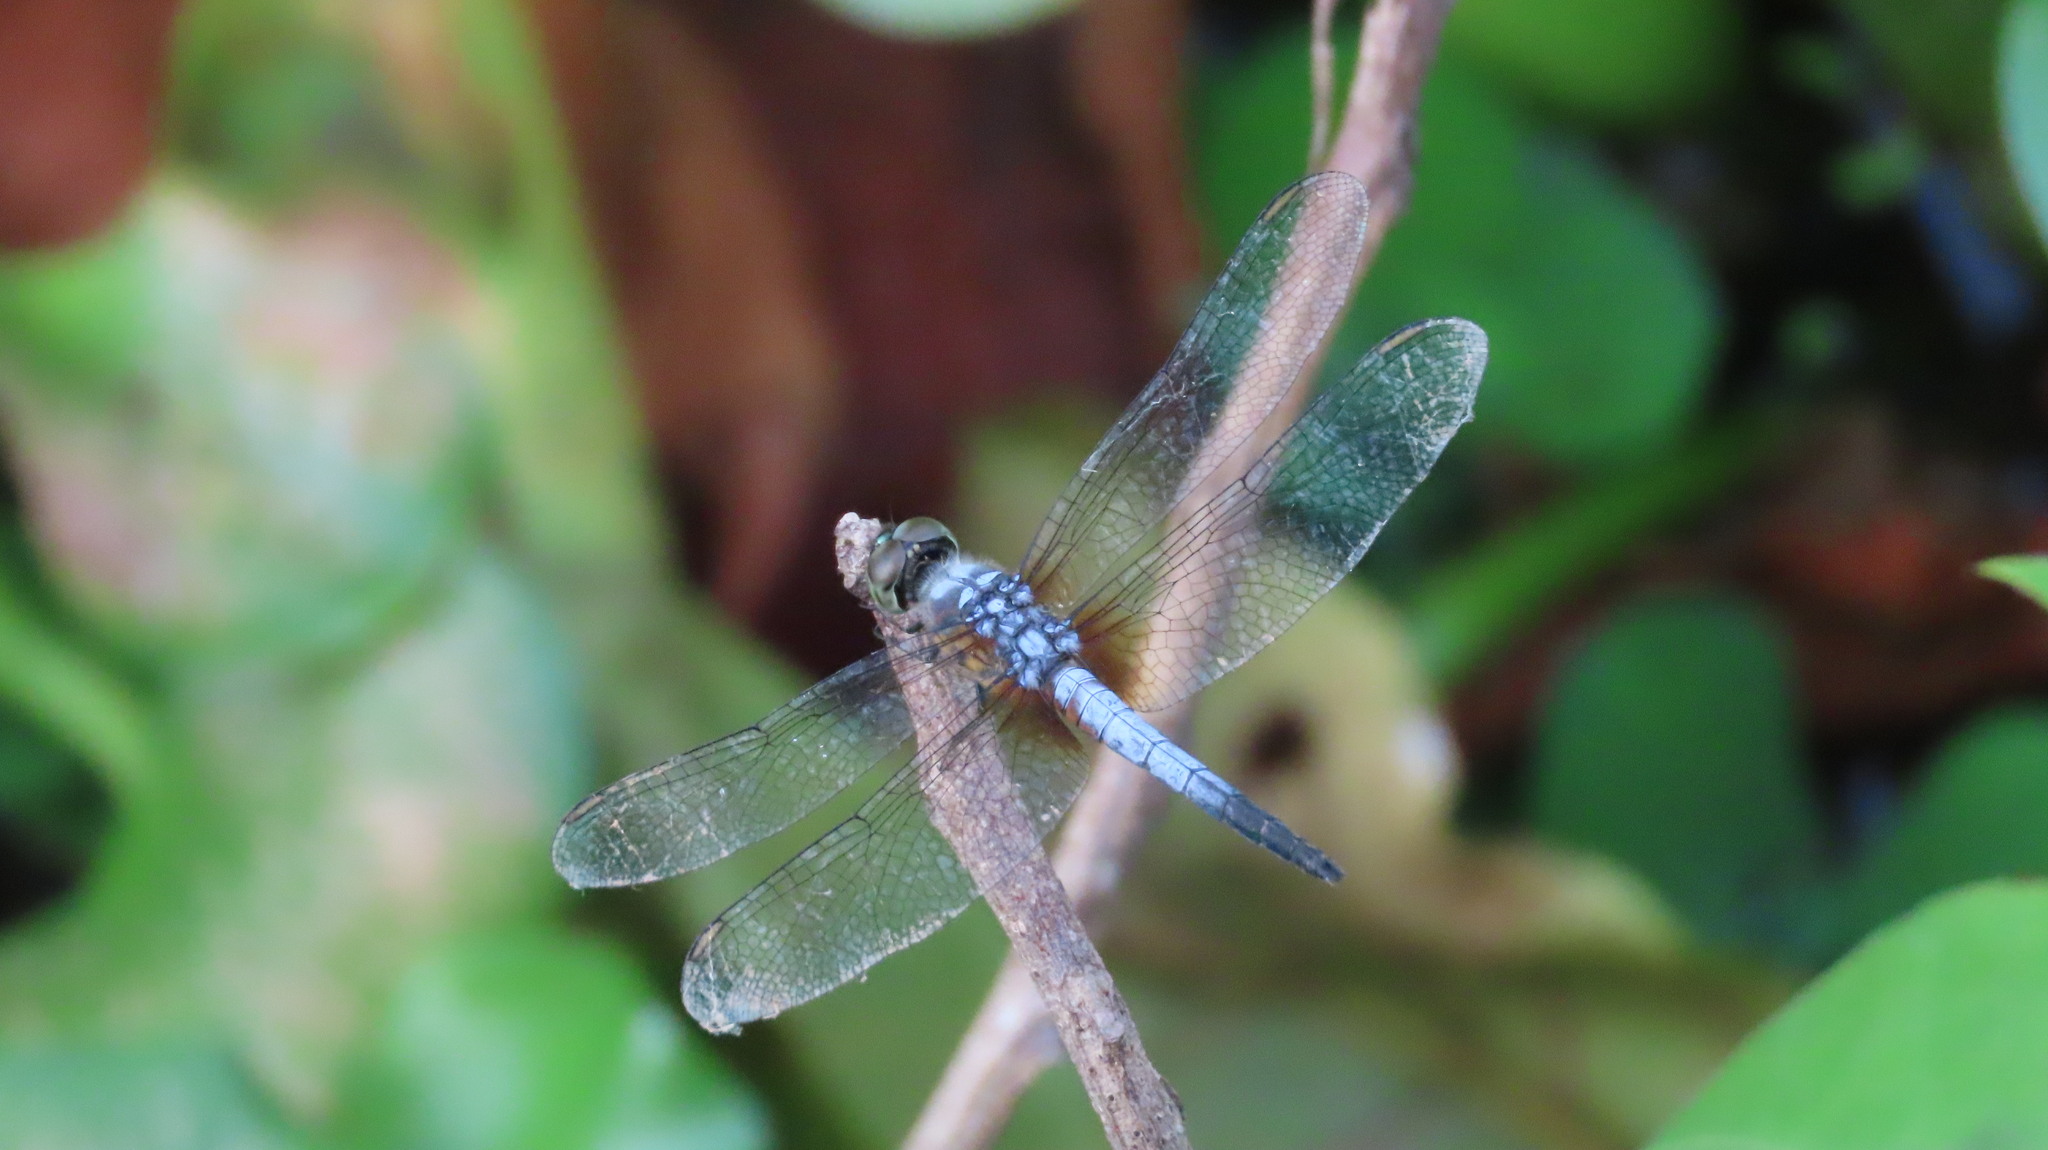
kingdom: Animalia
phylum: Arthropoda
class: Insecta
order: Odonata
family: Libellulidae
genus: Brachydiplax
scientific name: Brachydiplax chalybea
